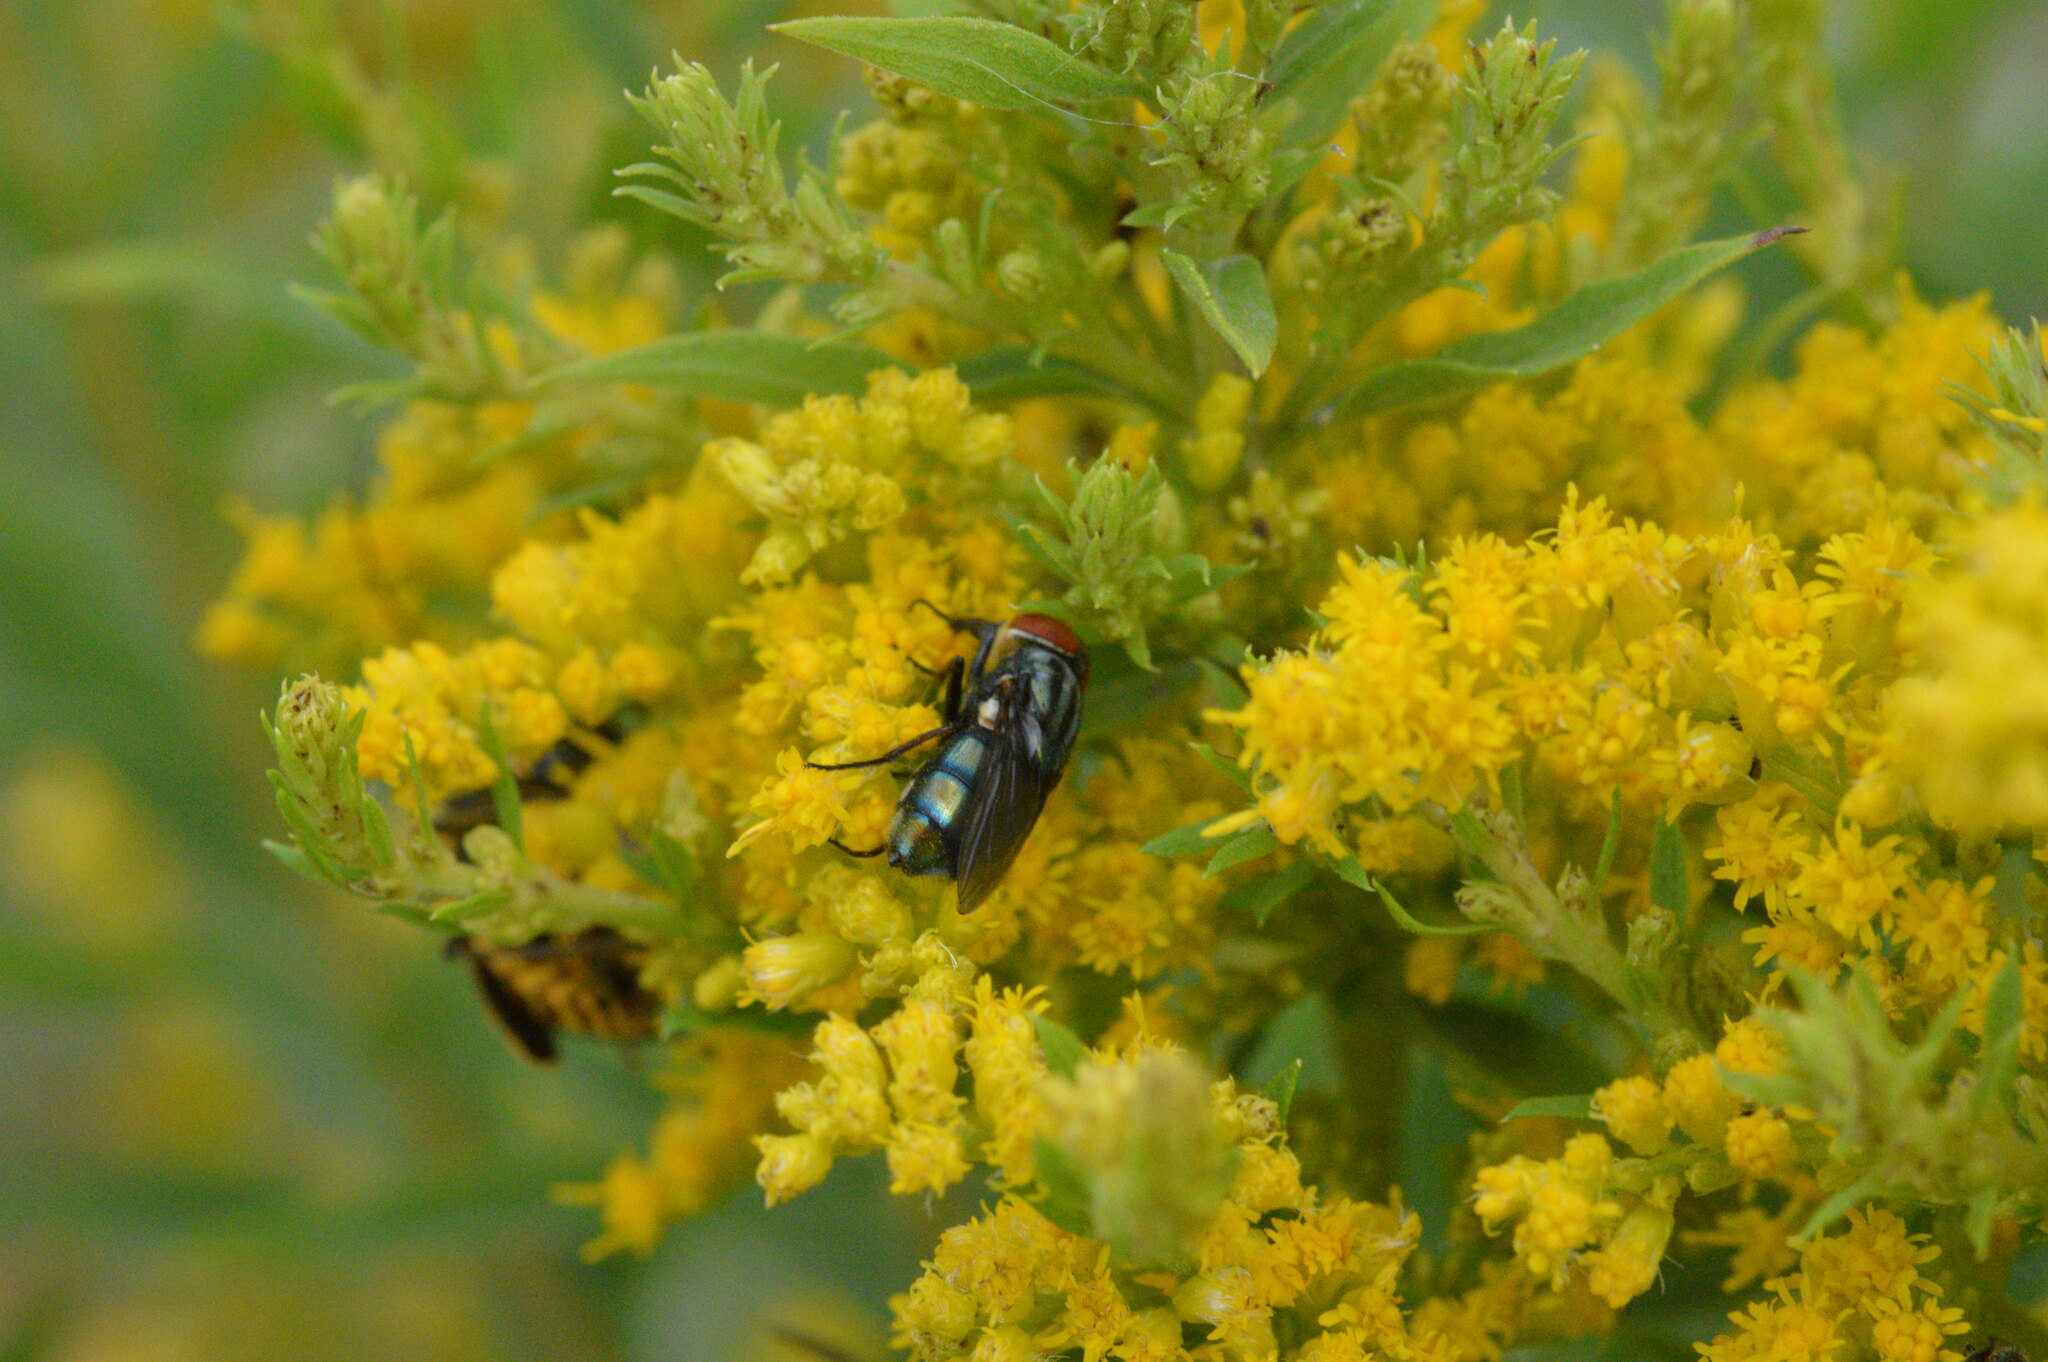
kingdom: Animalia
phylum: Arthropoda
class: Insecta
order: Diptera
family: Calliphoridae
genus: Cochliomyia
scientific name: Cochliomyia macellaria
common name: Secondary screwworm
